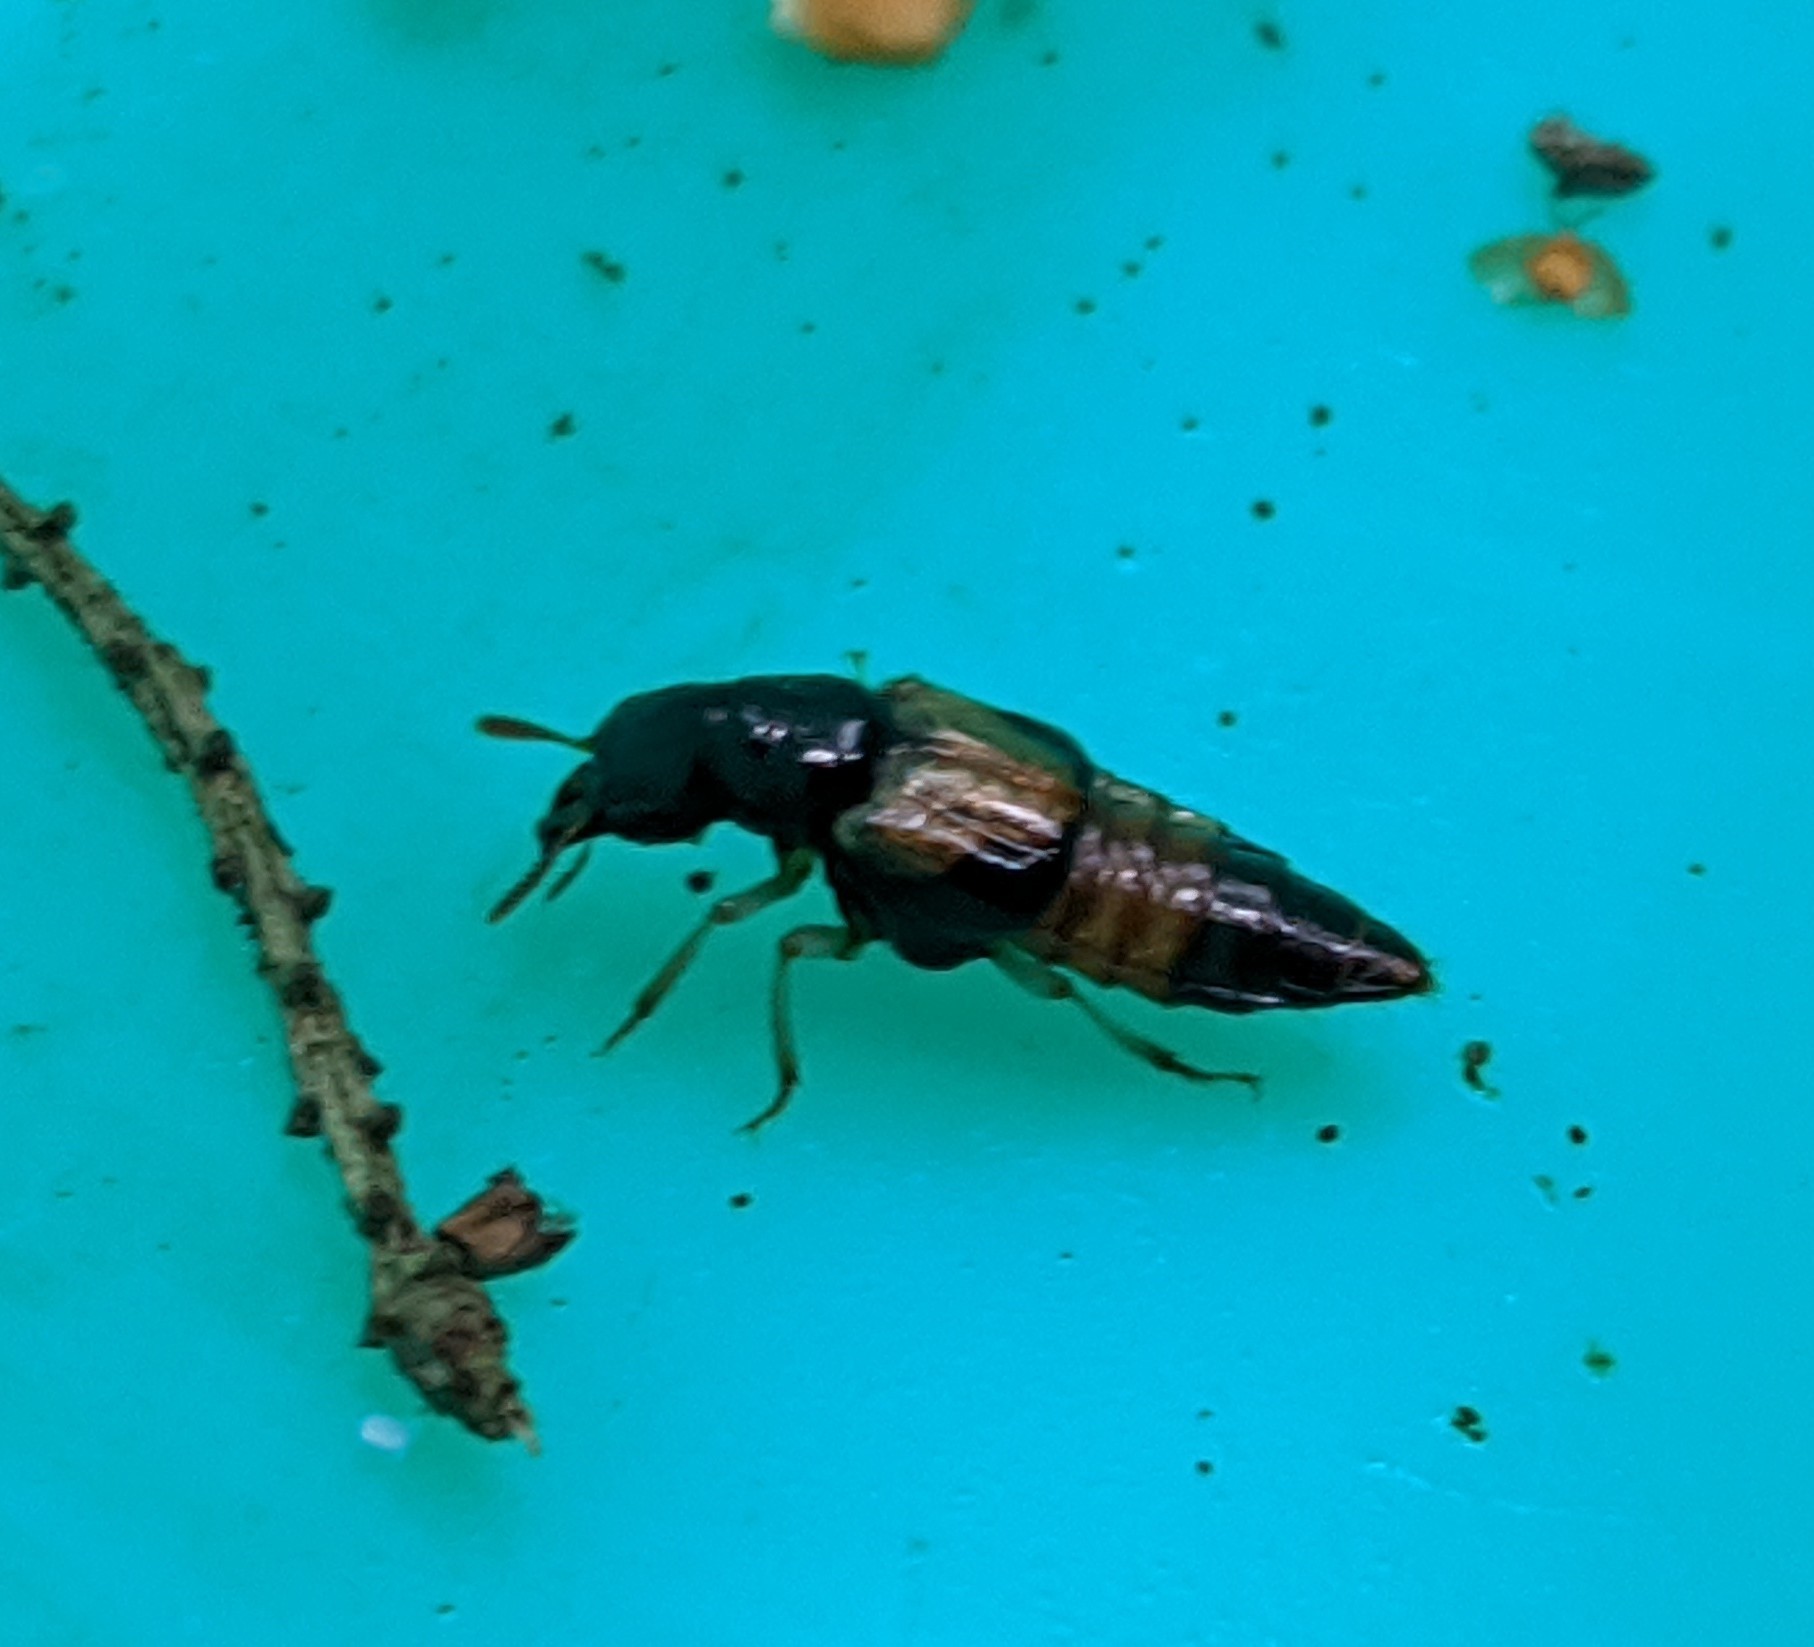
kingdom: Animalia
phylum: Arthropoda
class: Insecta
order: Coleoptera
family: Staphylinidae
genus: Oxyporus
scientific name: Oxyporus maxillosus
